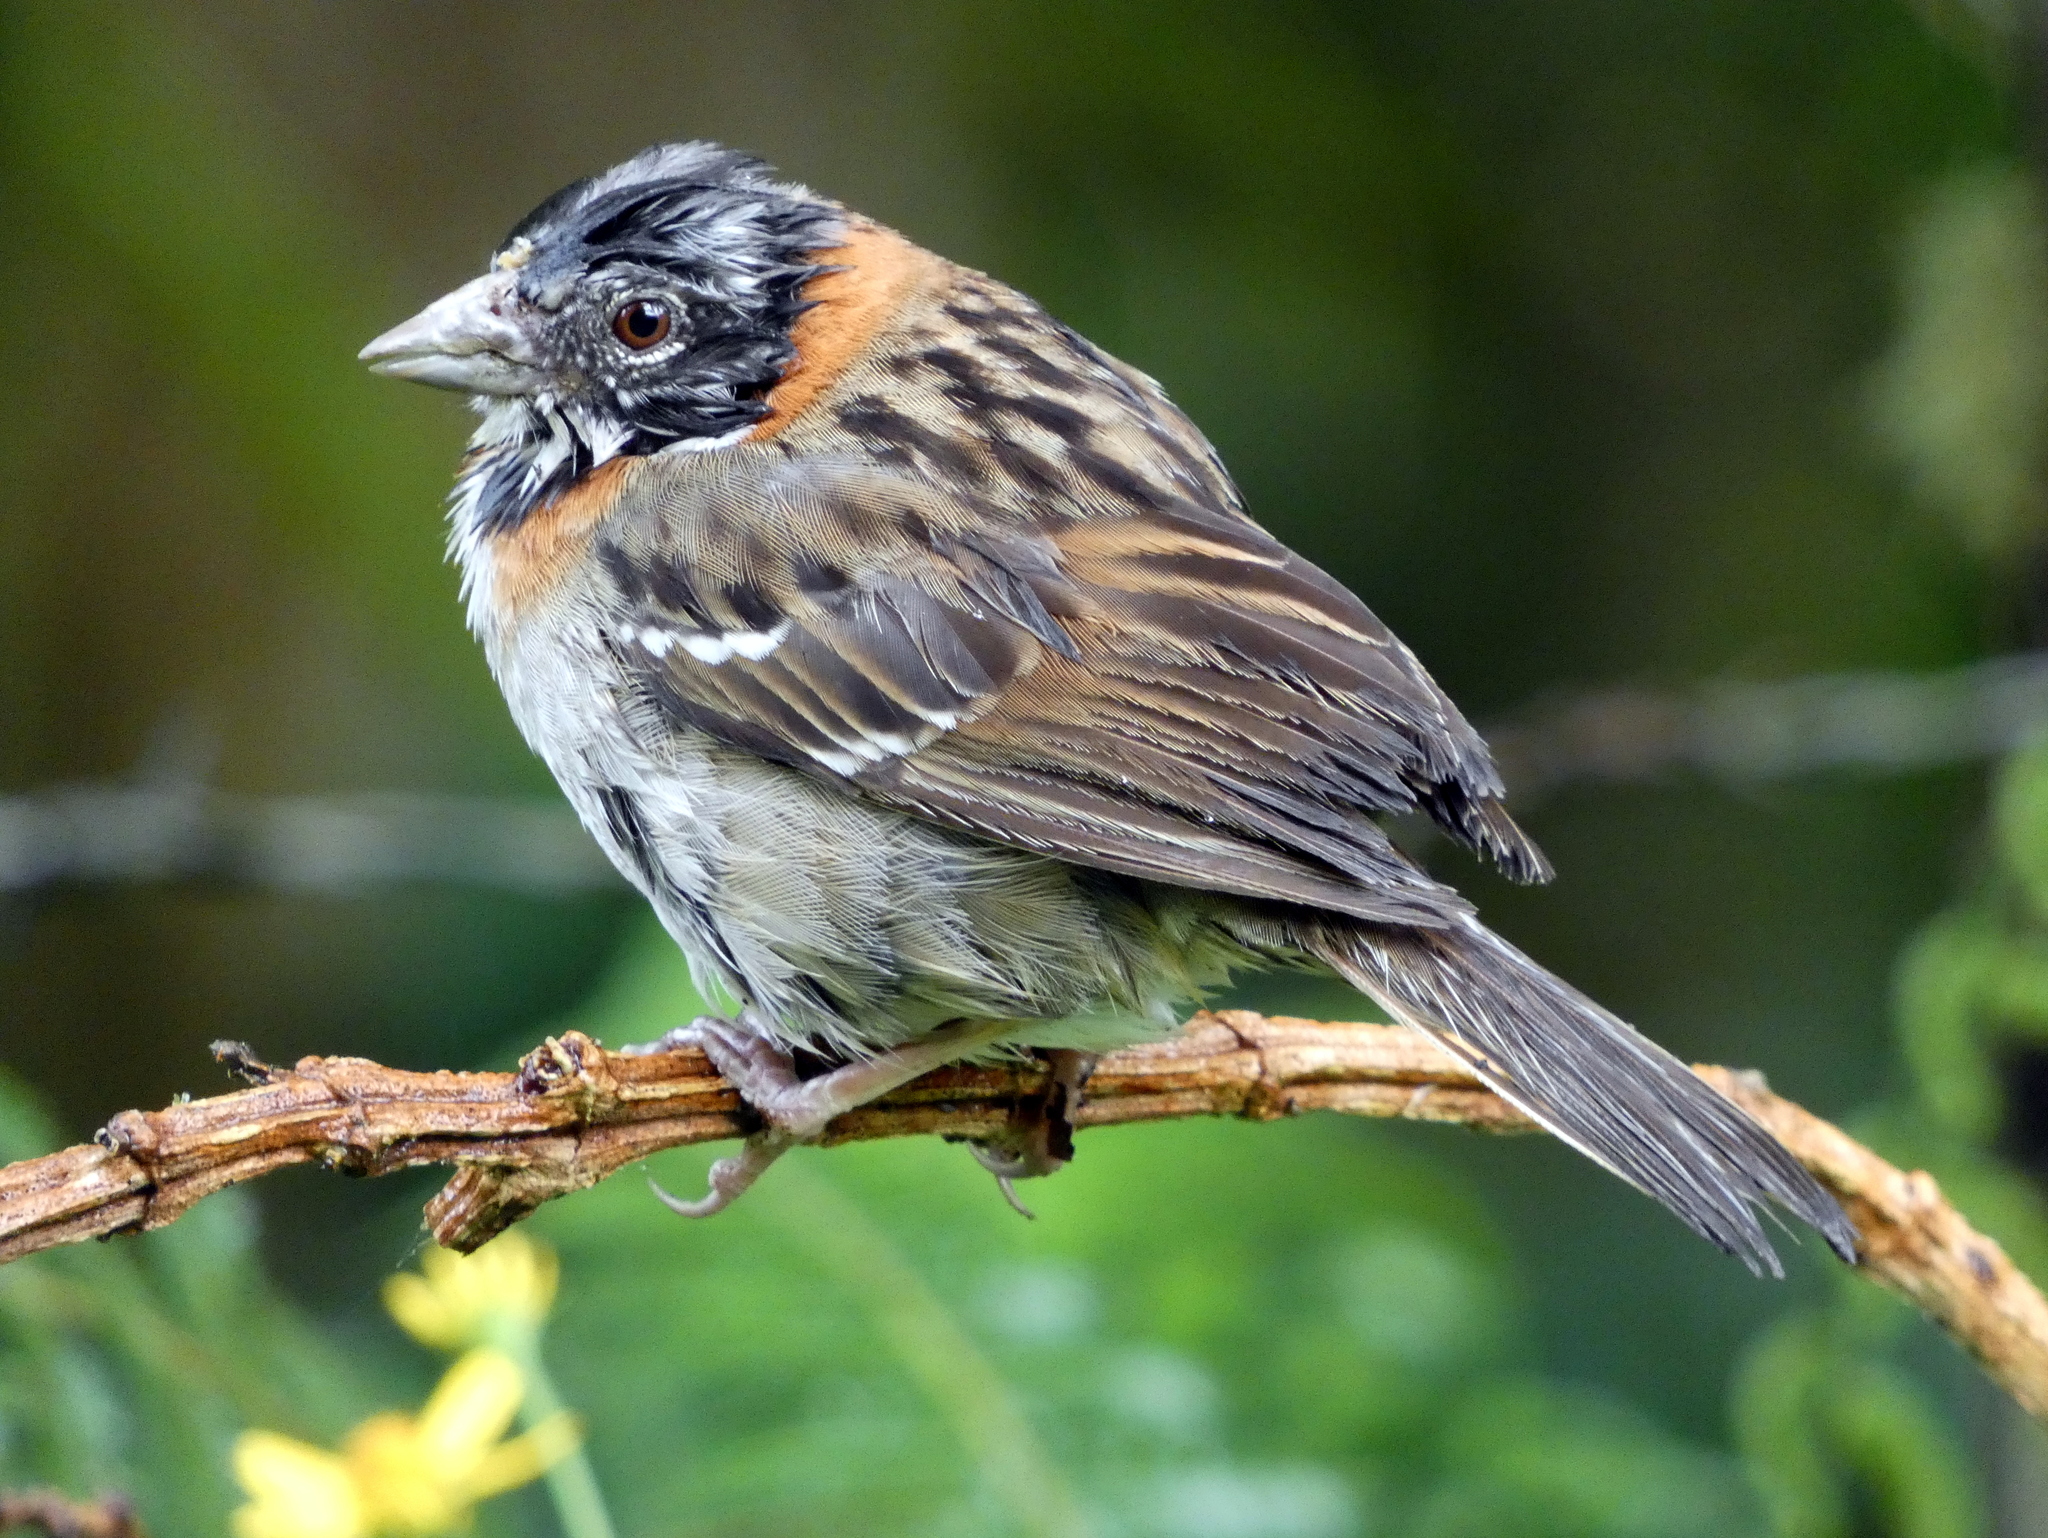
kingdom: Animalia
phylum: Chordata
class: Aves
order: Passeriformes
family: Passerellidae
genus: Zonotrichia
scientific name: Zonotrichia capensis
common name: Rufous-collared sparrow
